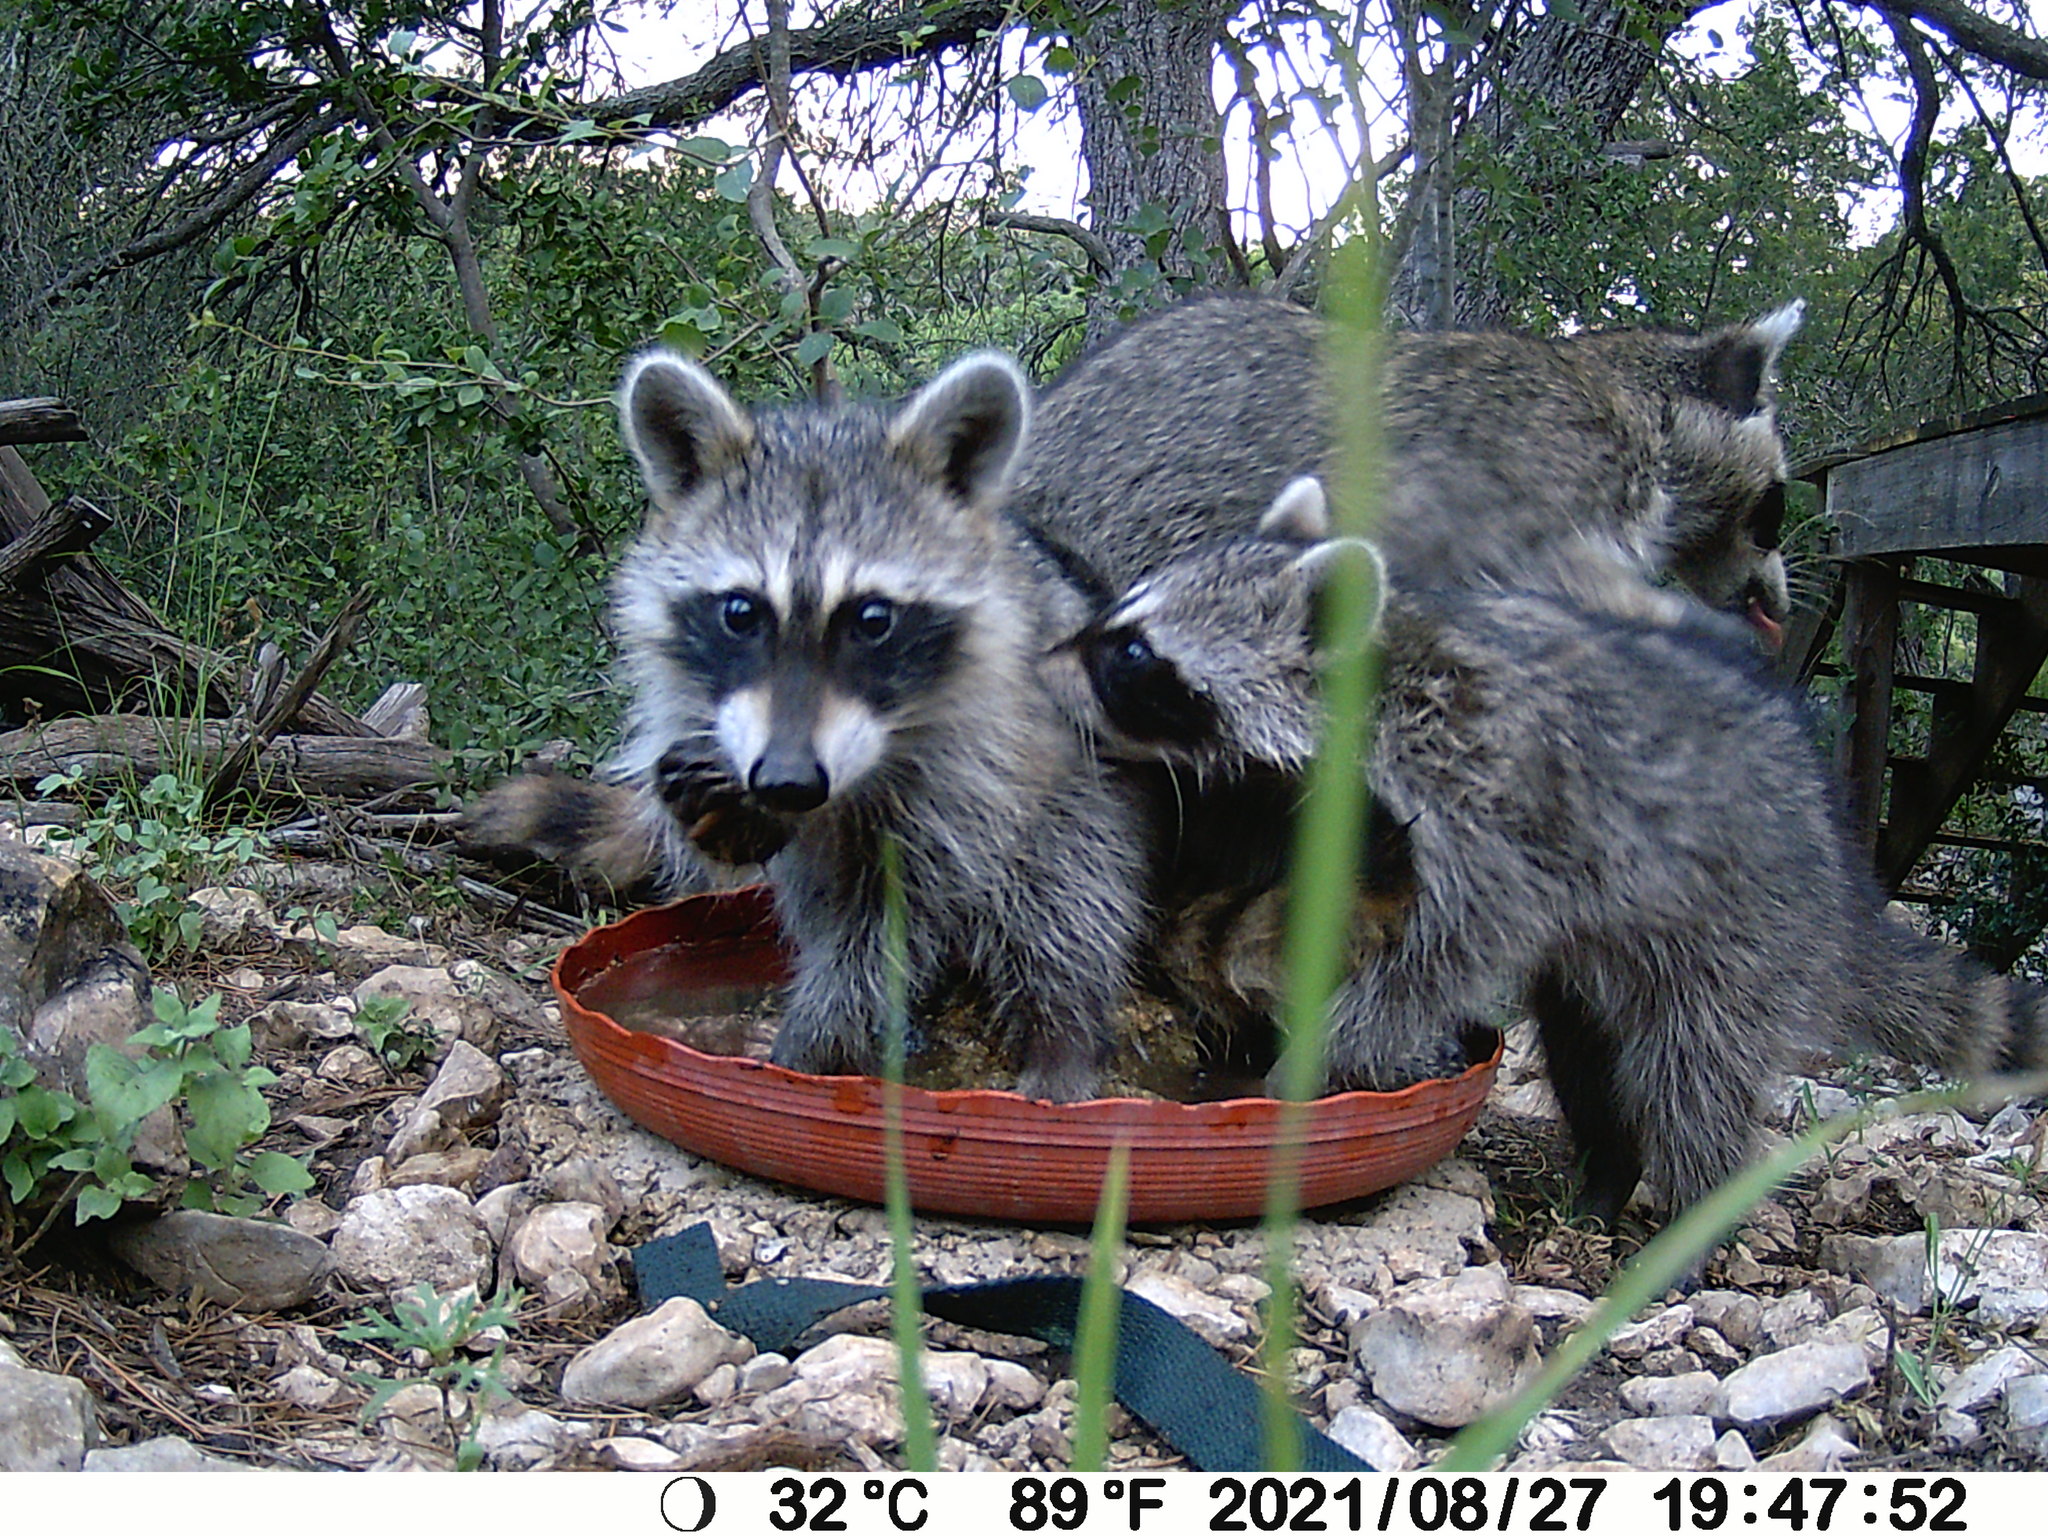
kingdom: Animalia
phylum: Chordata
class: Mammalia
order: Carnivora
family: Procyonidae
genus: Procyon
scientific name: Procyon lotor
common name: Raccoon
